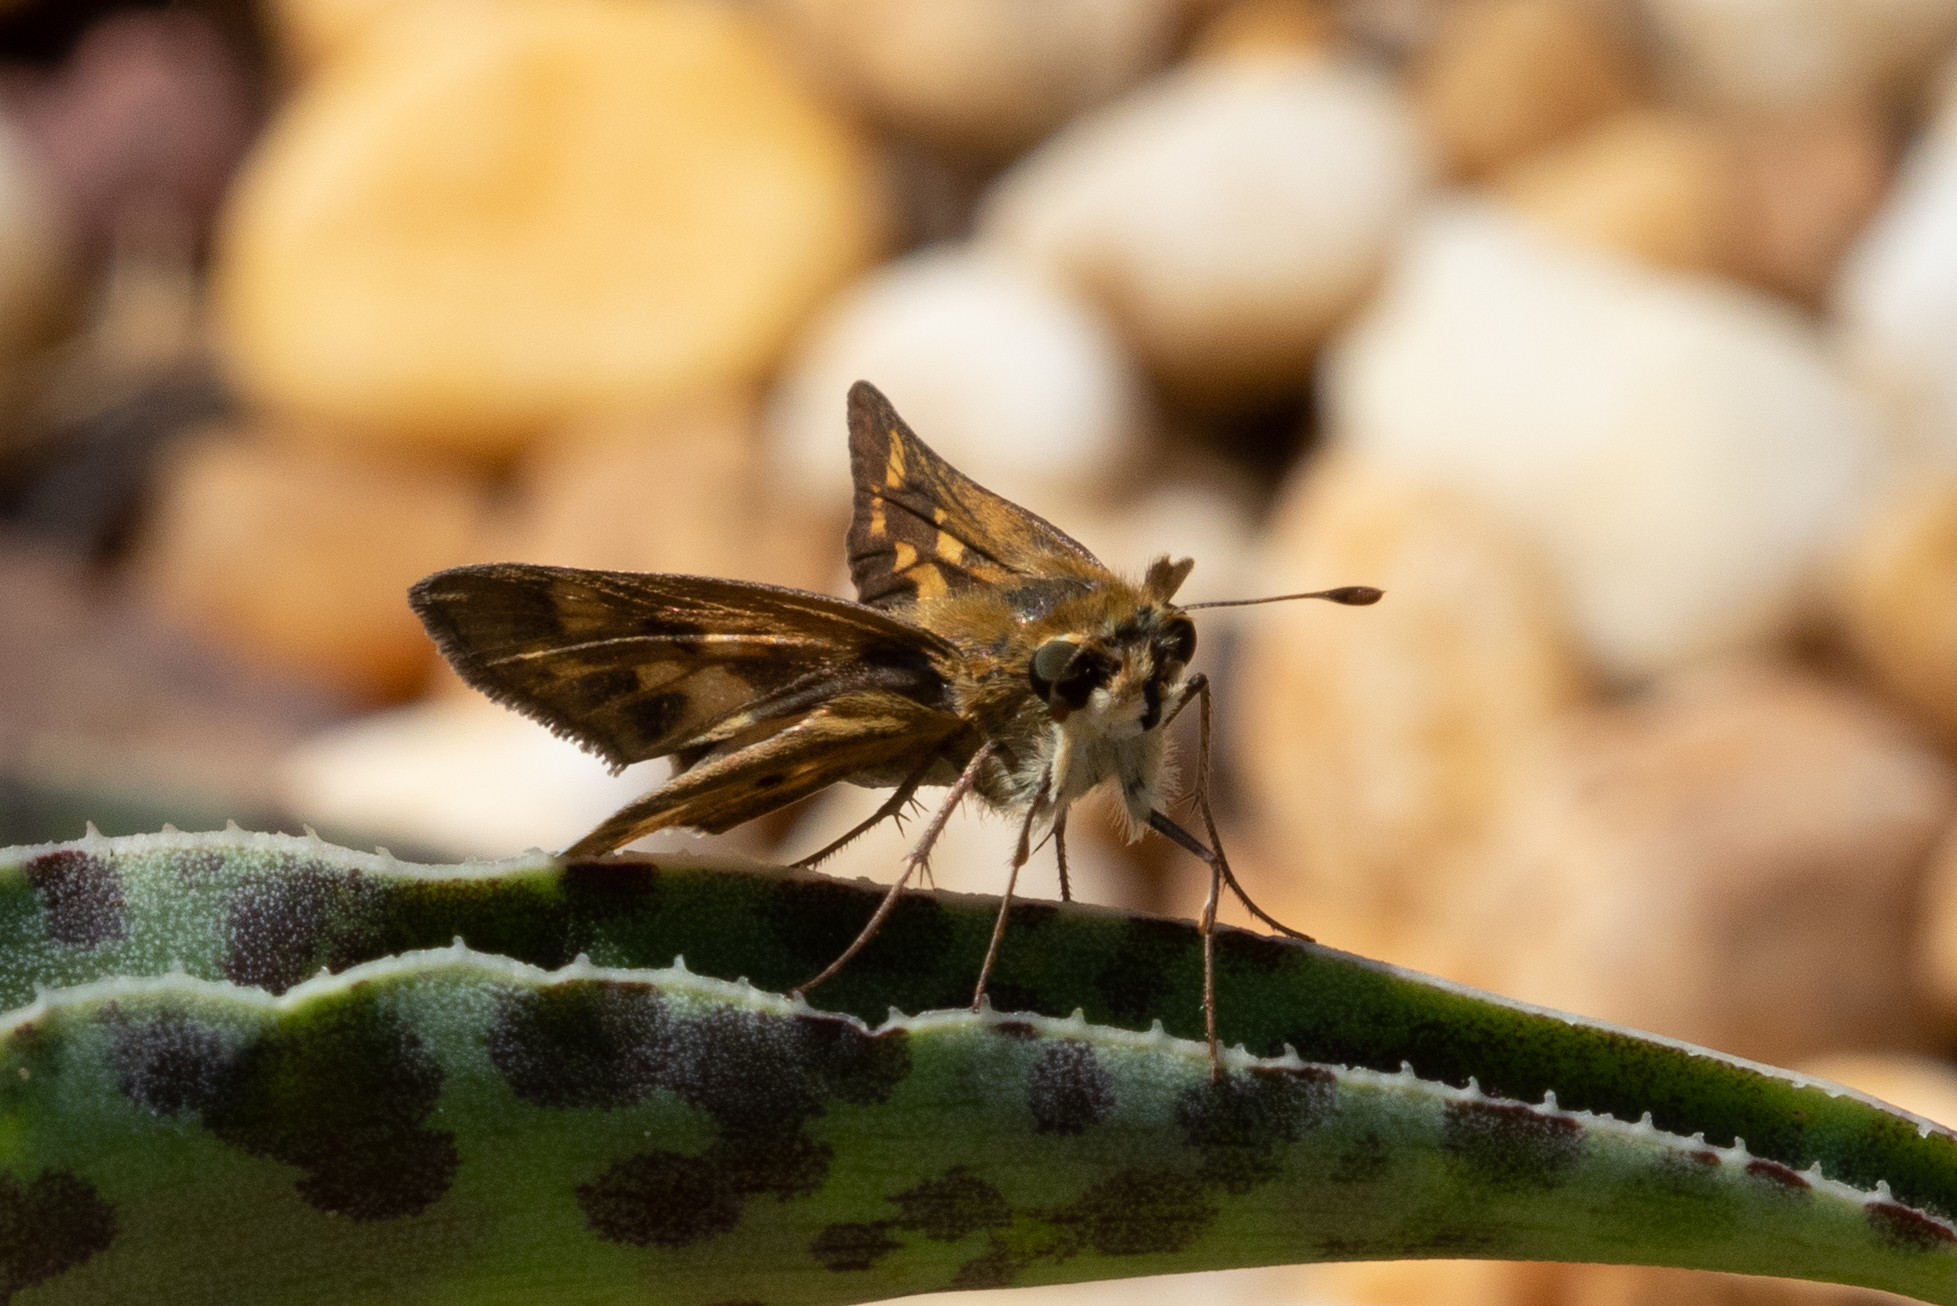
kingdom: Animalia
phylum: Arthropoda
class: Insecta
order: Lepidoptera
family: Hesperiidae
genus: Hylephila
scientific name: Hylephila phyleus
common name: Fiery skipper
